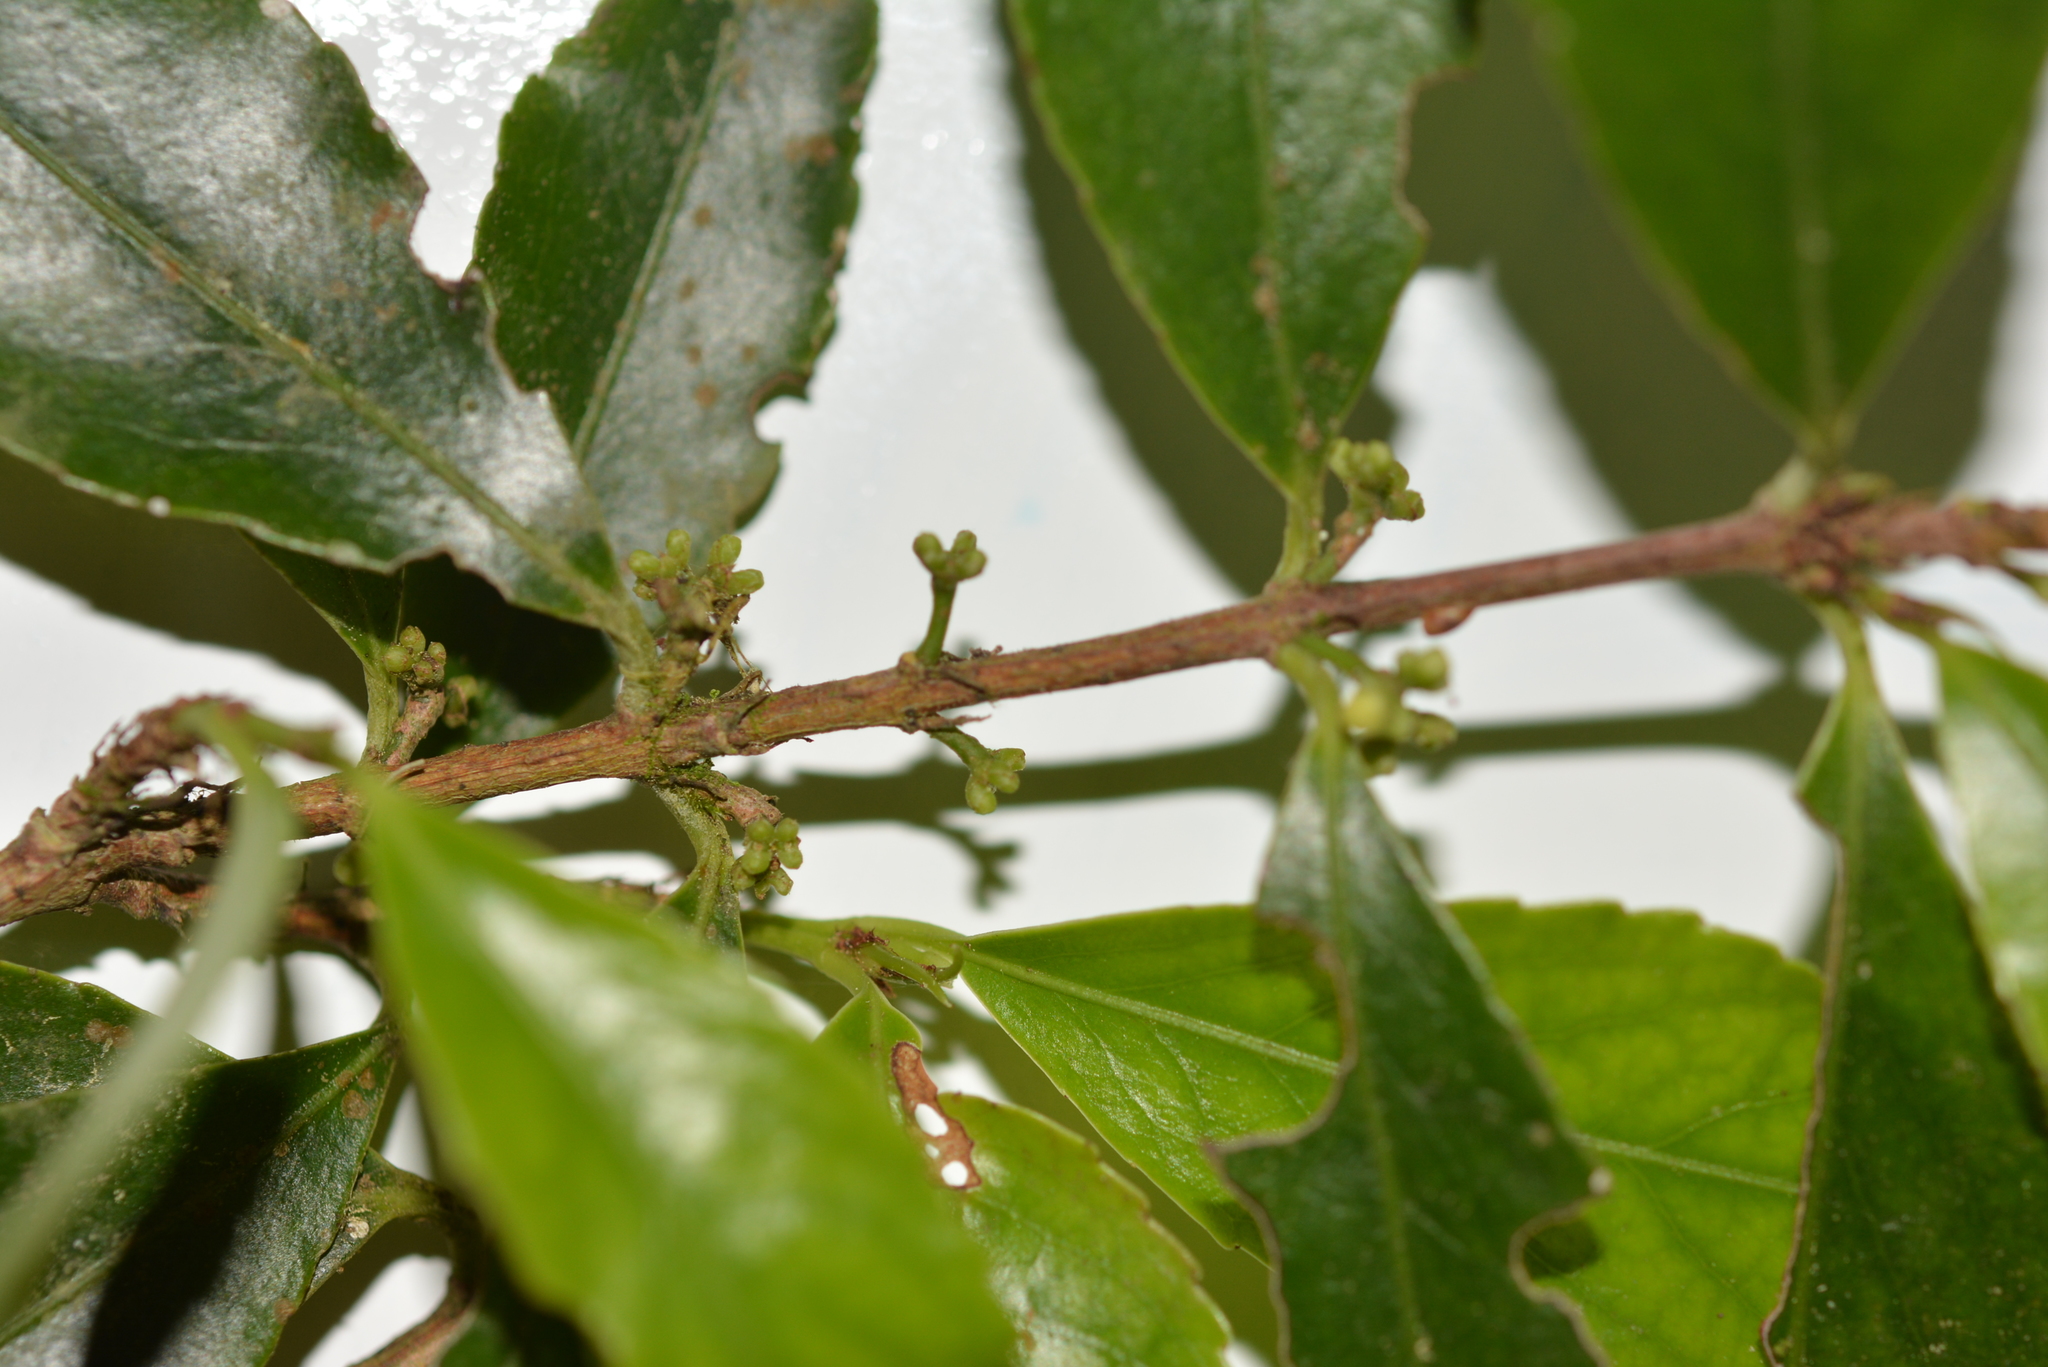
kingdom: Plantae
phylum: Tracheophyta
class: Magnoliopsida
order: Celastrales
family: Celastraceae
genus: Gyminda
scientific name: Gyminda tonduzii
